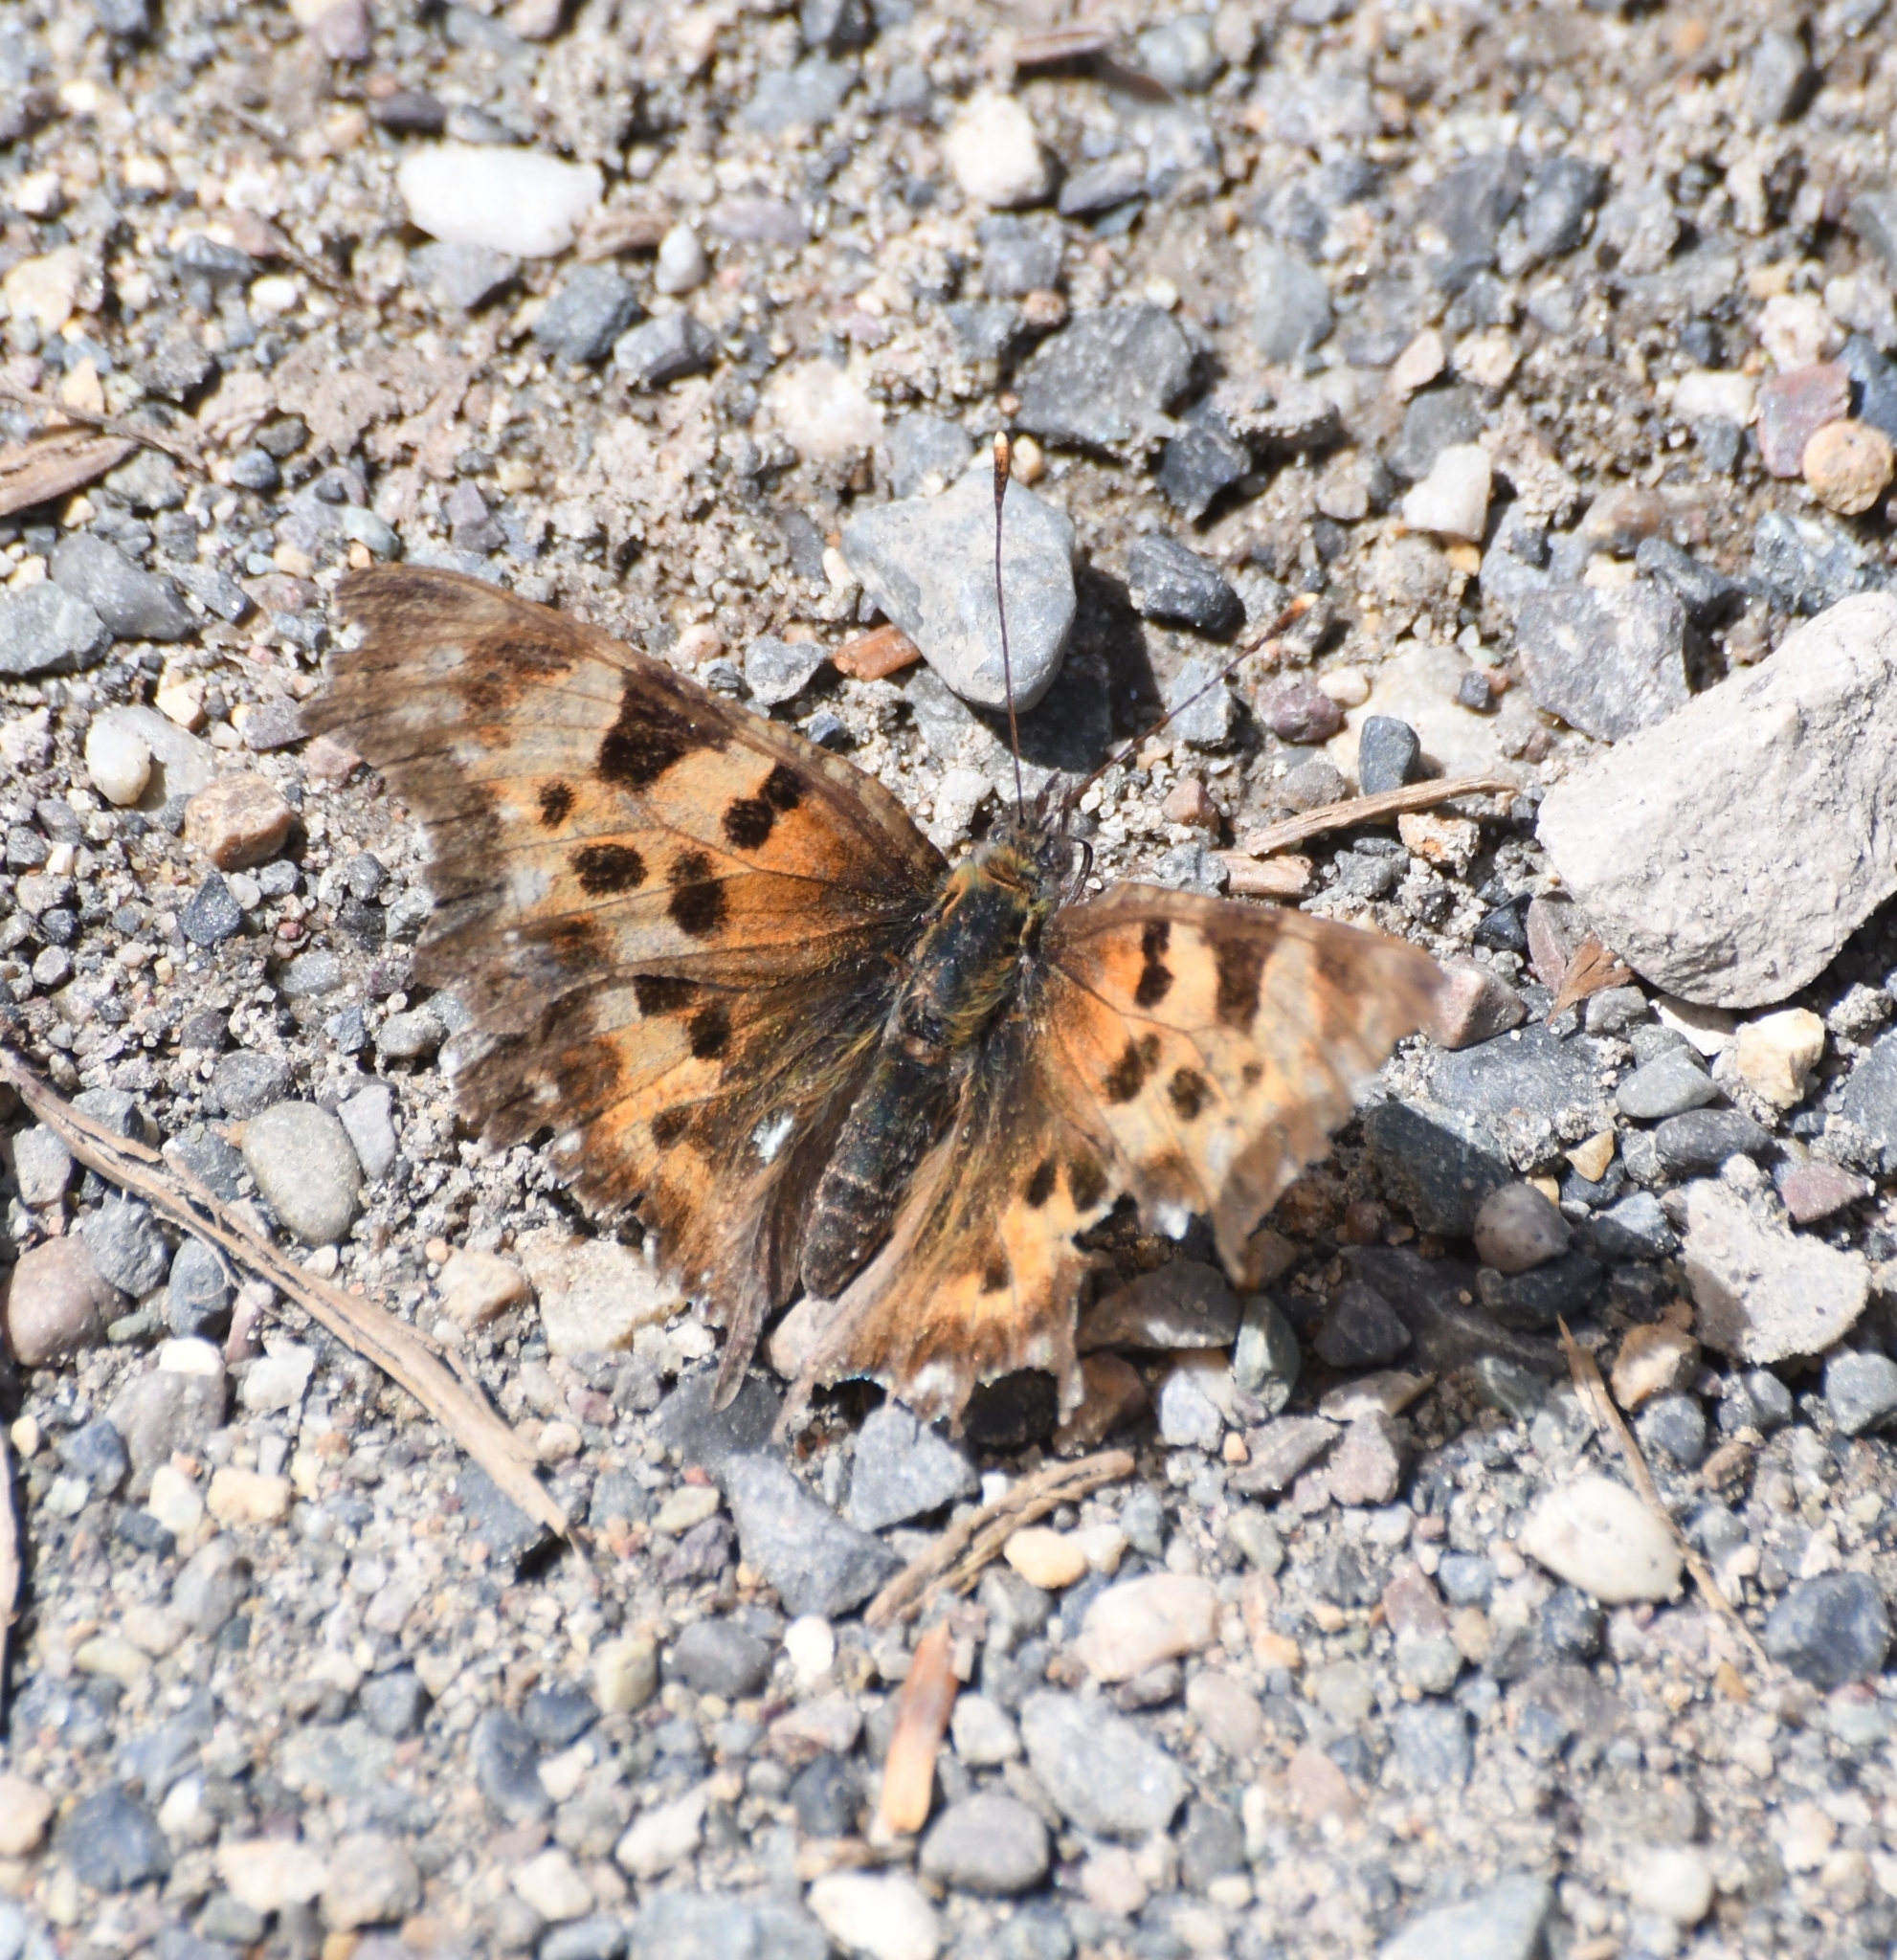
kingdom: Animalia
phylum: Arthropoda
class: Insecta
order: Lepidoptera
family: Nymphalidae
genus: Polygonia
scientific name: Polygonia faunus
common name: Green comma
